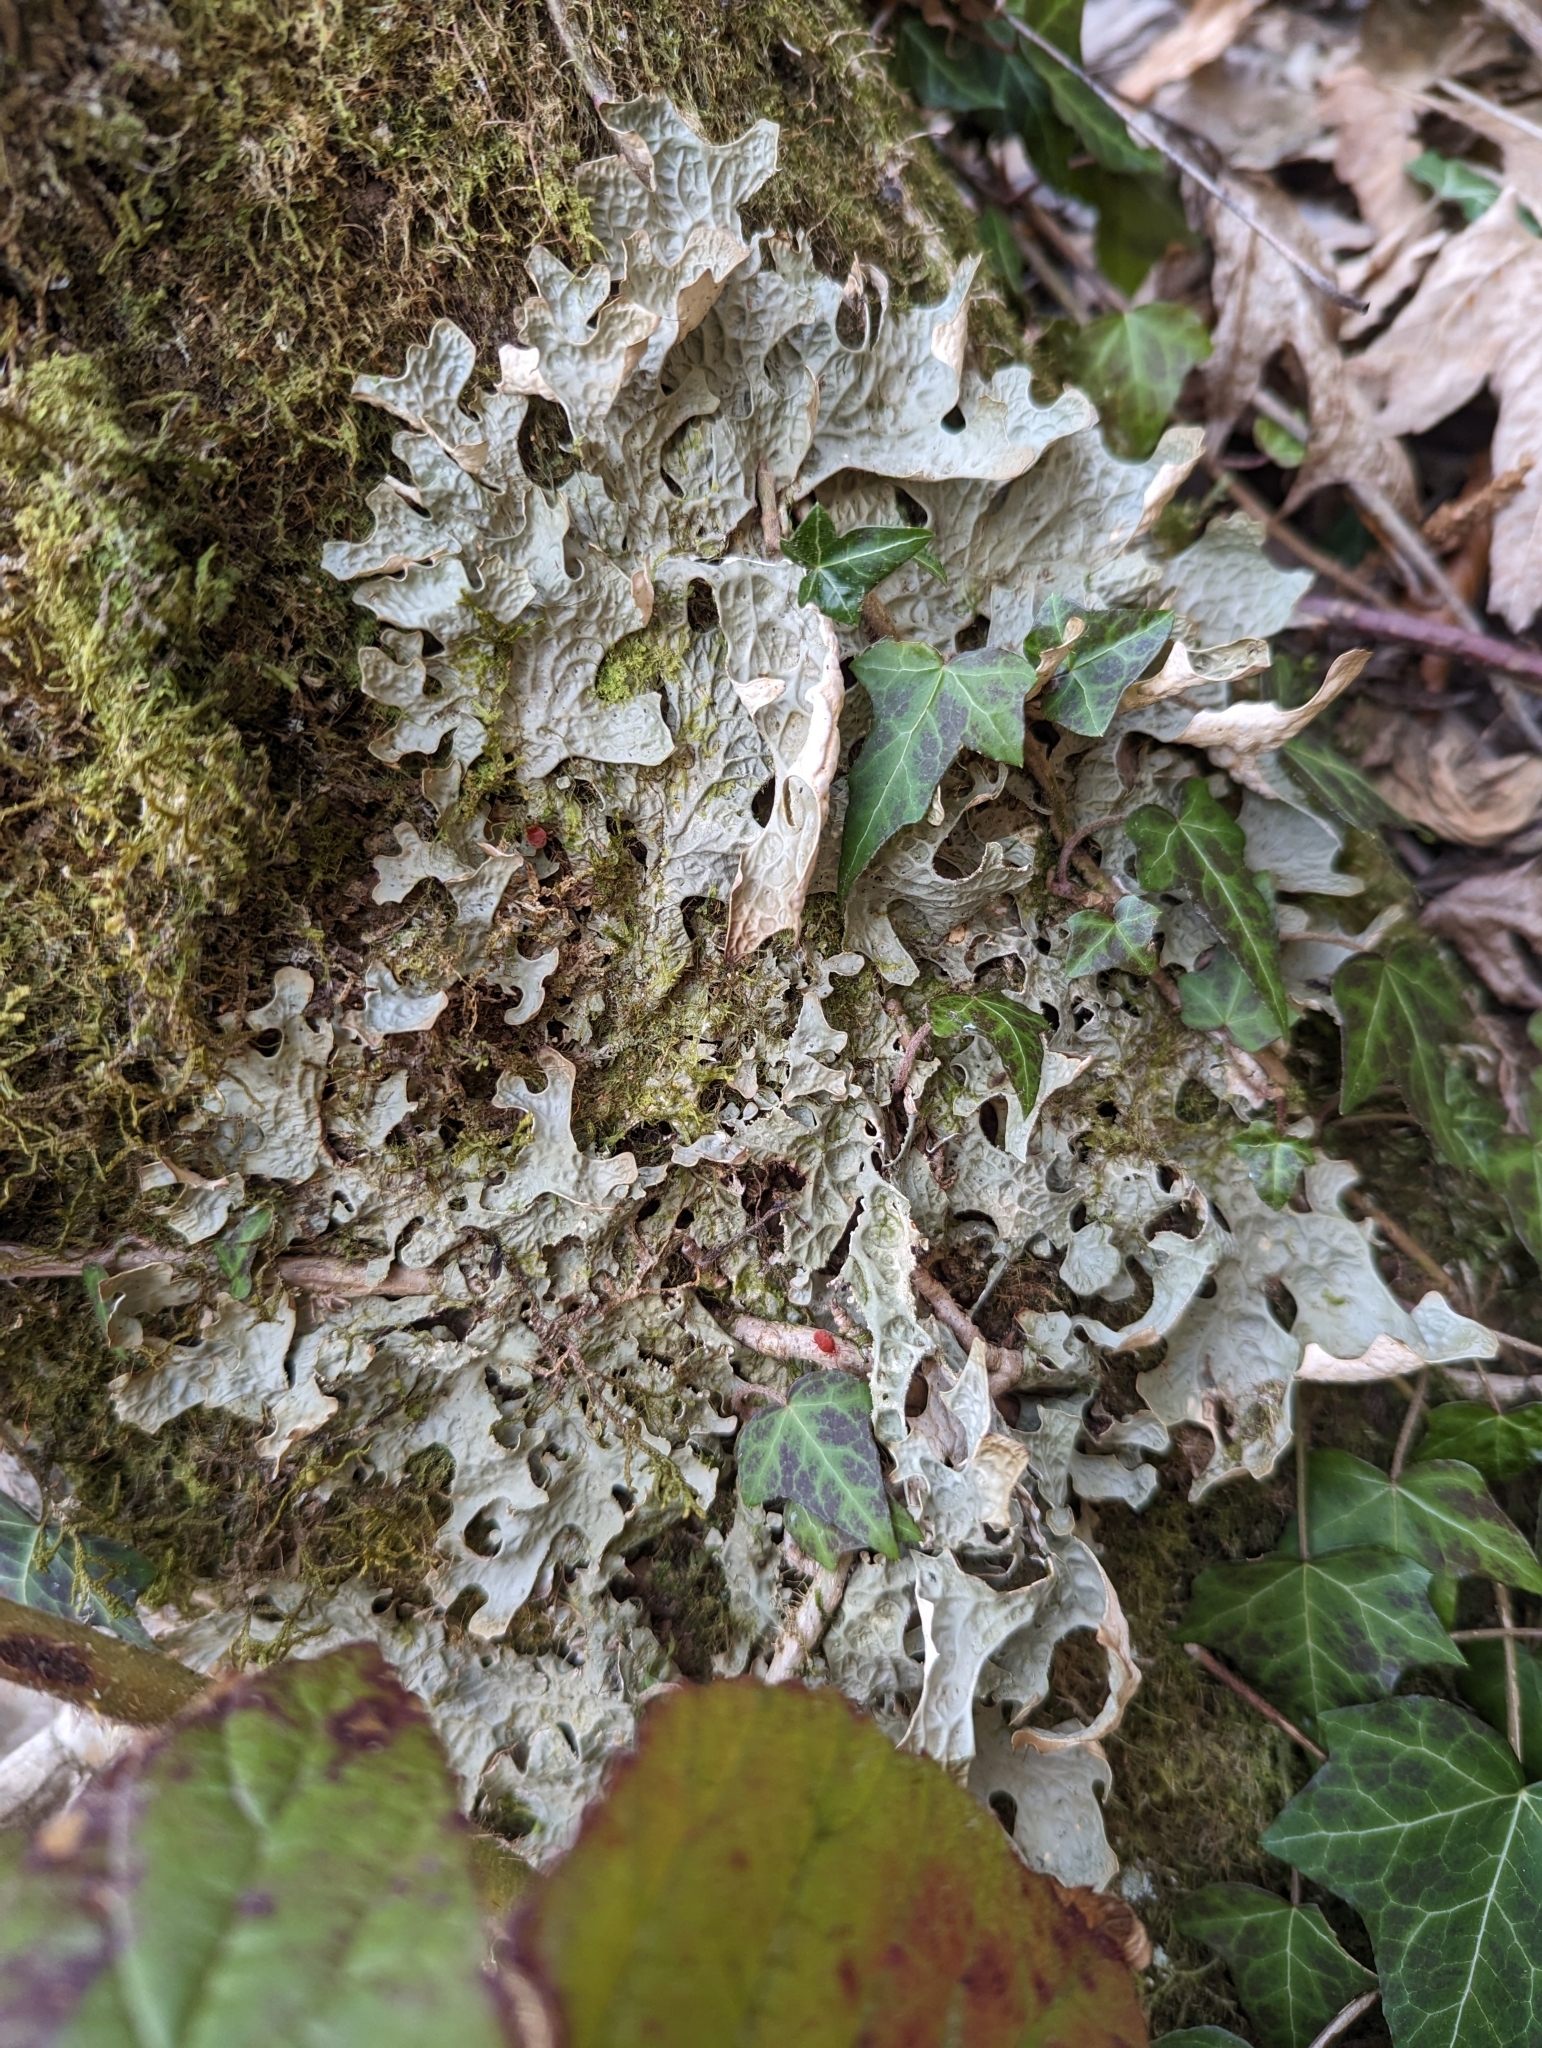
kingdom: Fungi
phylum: Ascomycota
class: Lecanoromycetes
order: Peltigerales
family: Lobariaceae
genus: Lobaria
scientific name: Lobaria pulmonaria
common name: Lungwort
